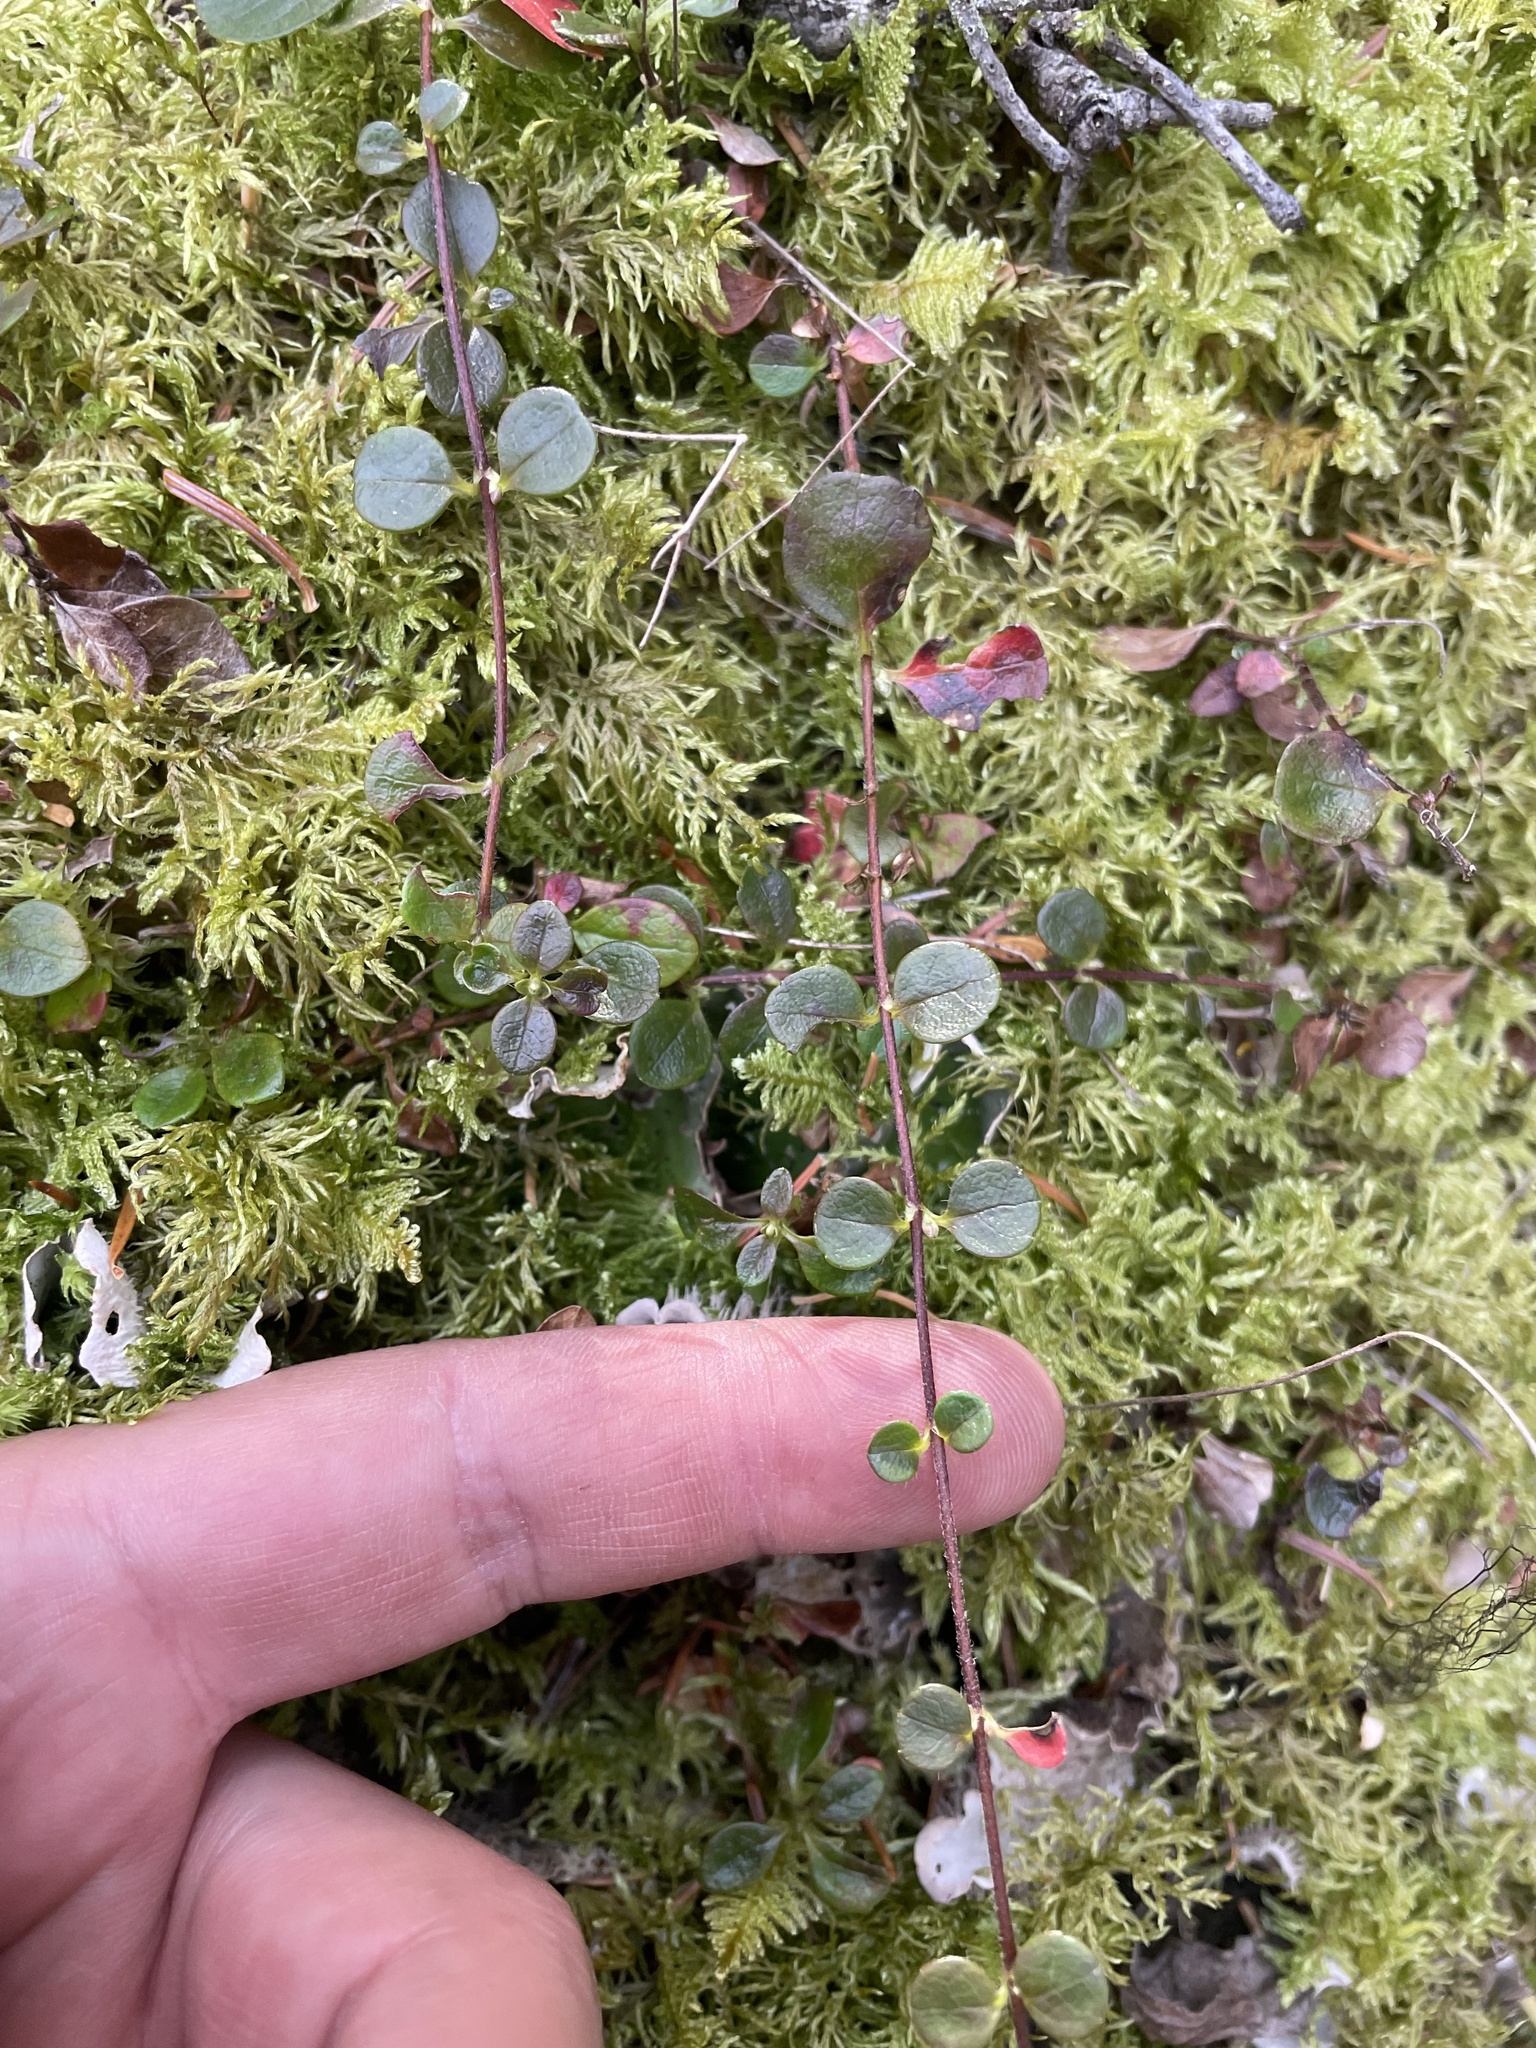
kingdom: Plantae
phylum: Tracheophyta
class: Magnoliopsida
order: Dipsacales
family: Caprifoliaceae
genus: Linnaea
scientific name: Linnaea borealis
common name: Twinflower
